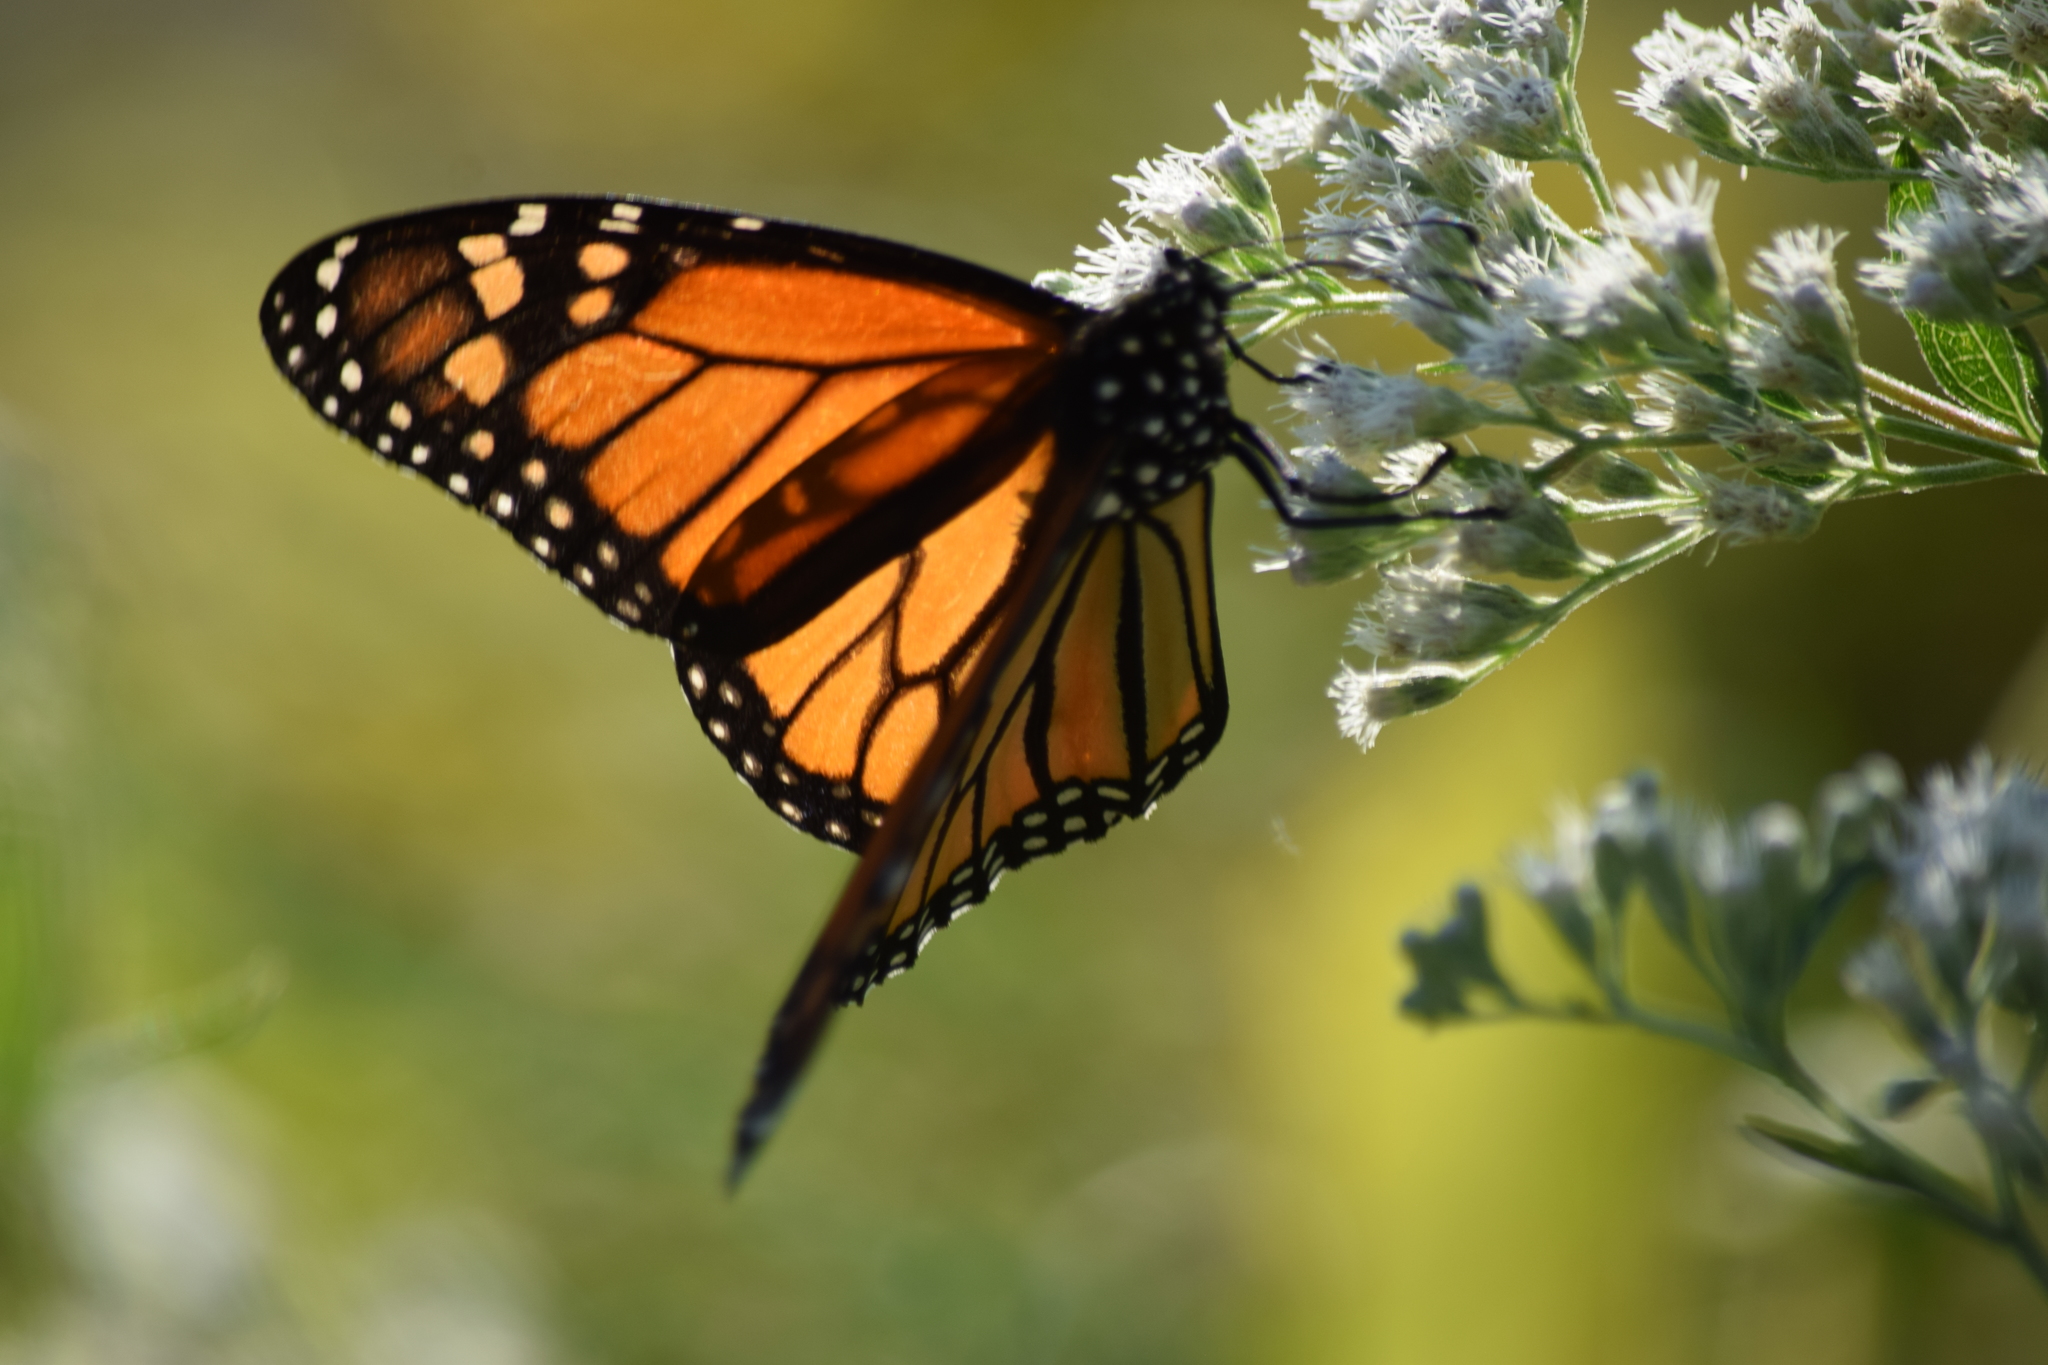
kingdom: Animalia
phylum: Arthropoda
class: Insecta
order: Lepidoptera
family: Nymphalidae
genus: Danaus
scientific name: Danaus plexippus
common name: Monarch
